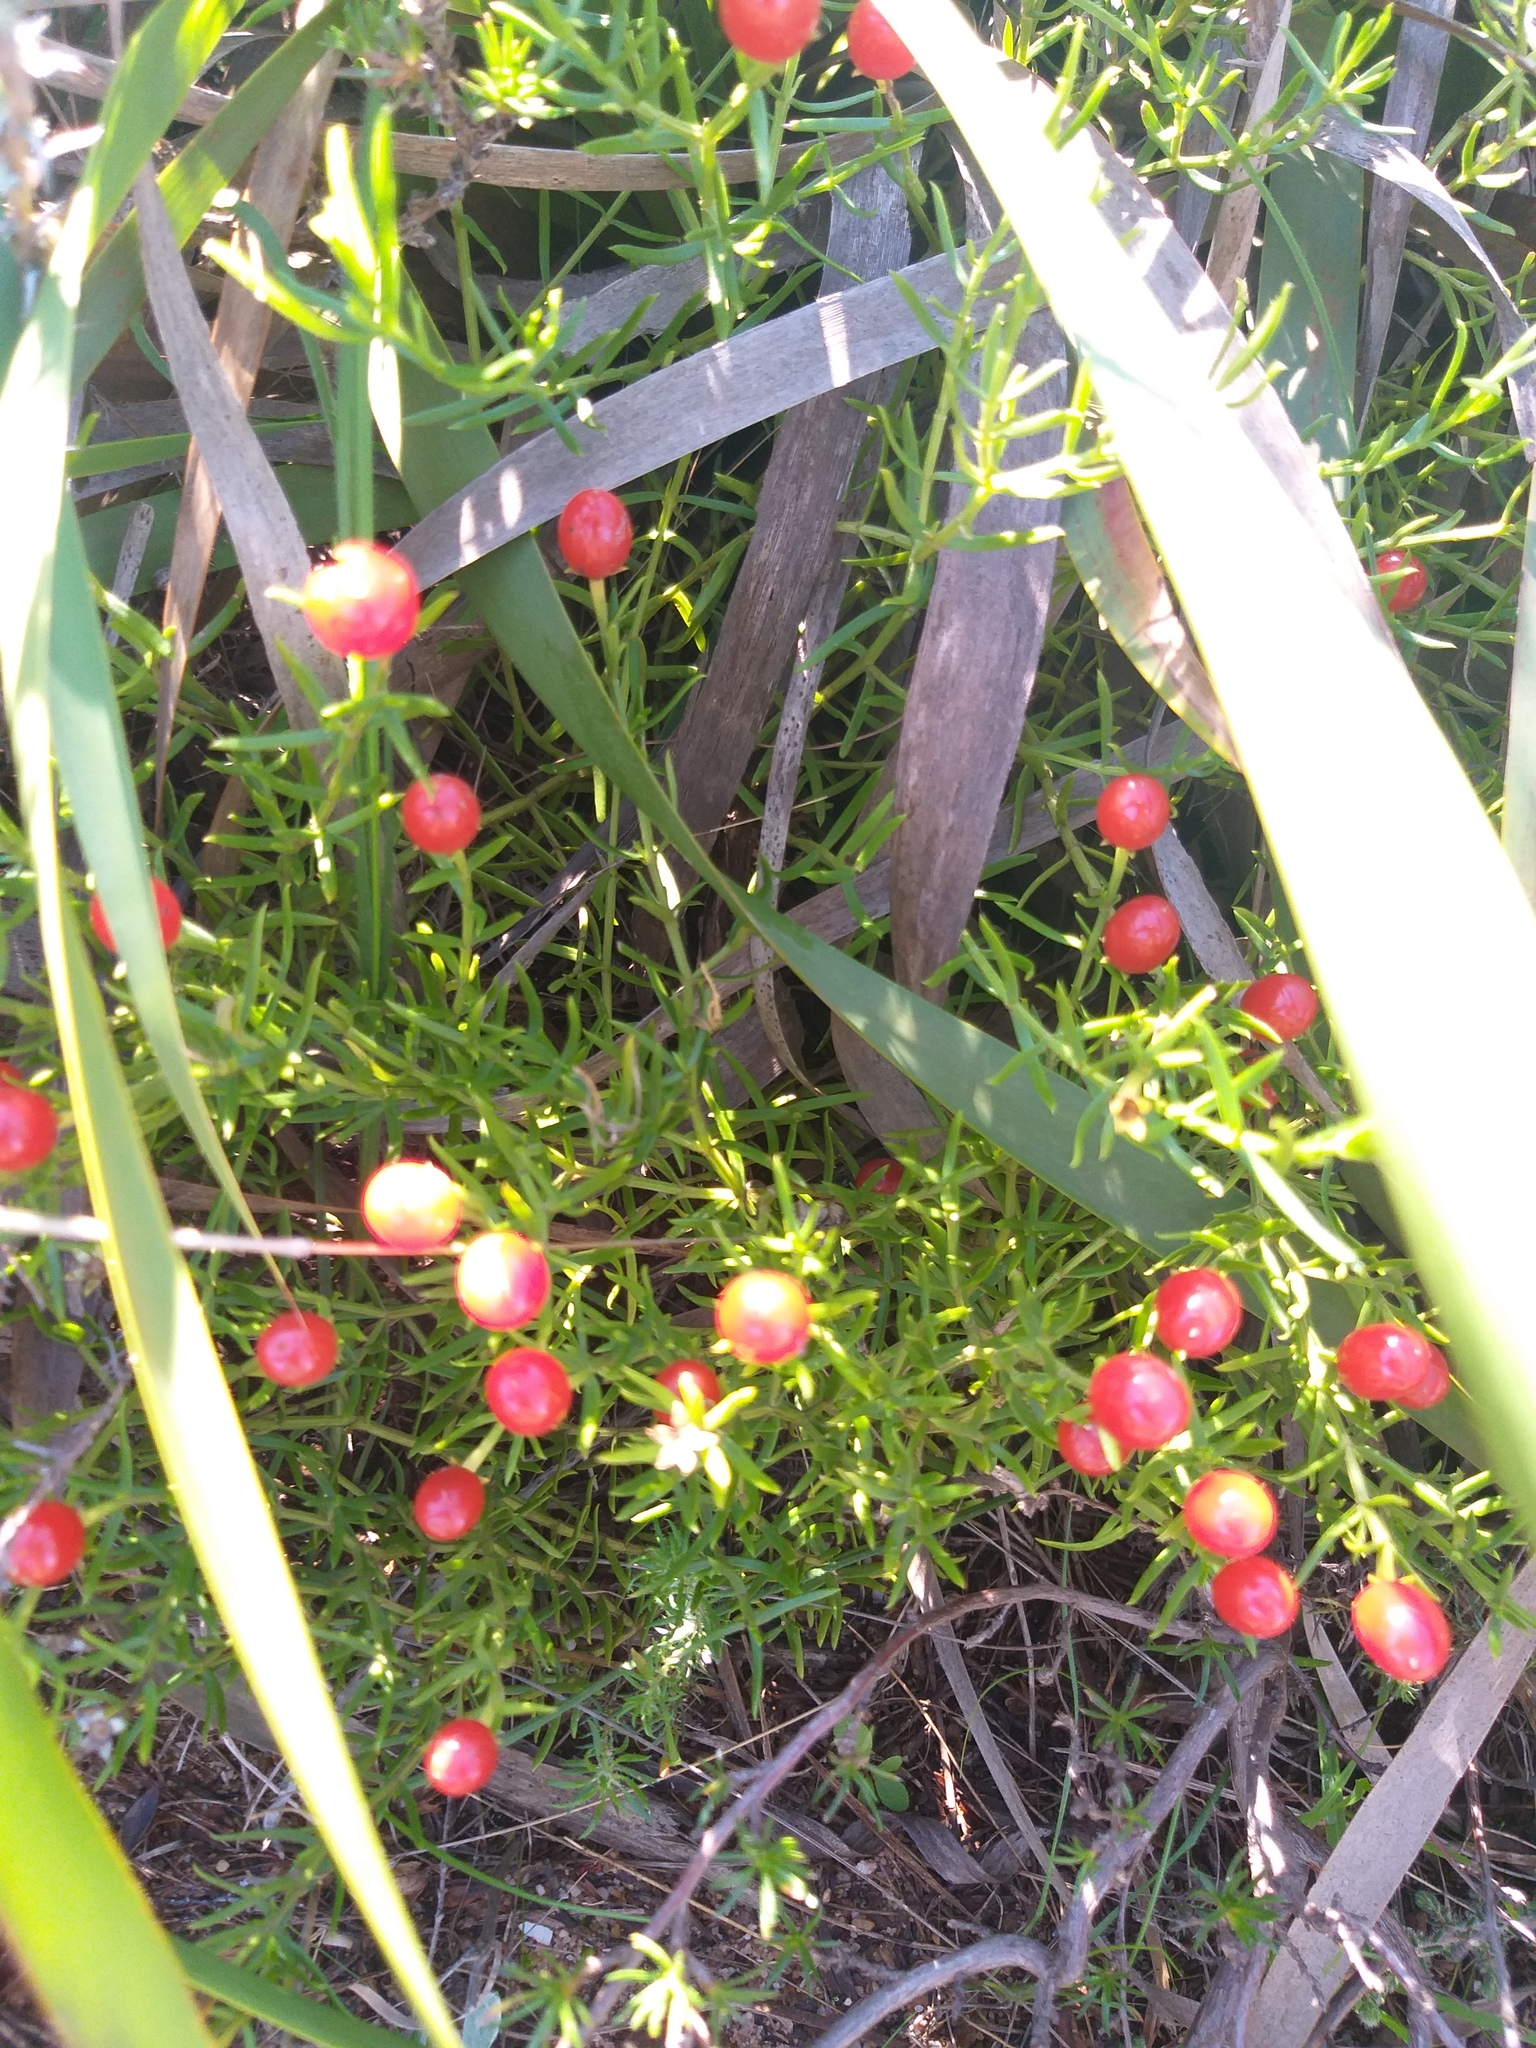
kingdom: Plantae
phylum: Tracheophyta
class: Magnoliopsida
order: Gentianales
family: Gentianaceae
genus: Chironia
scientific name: Chironia baccifera
